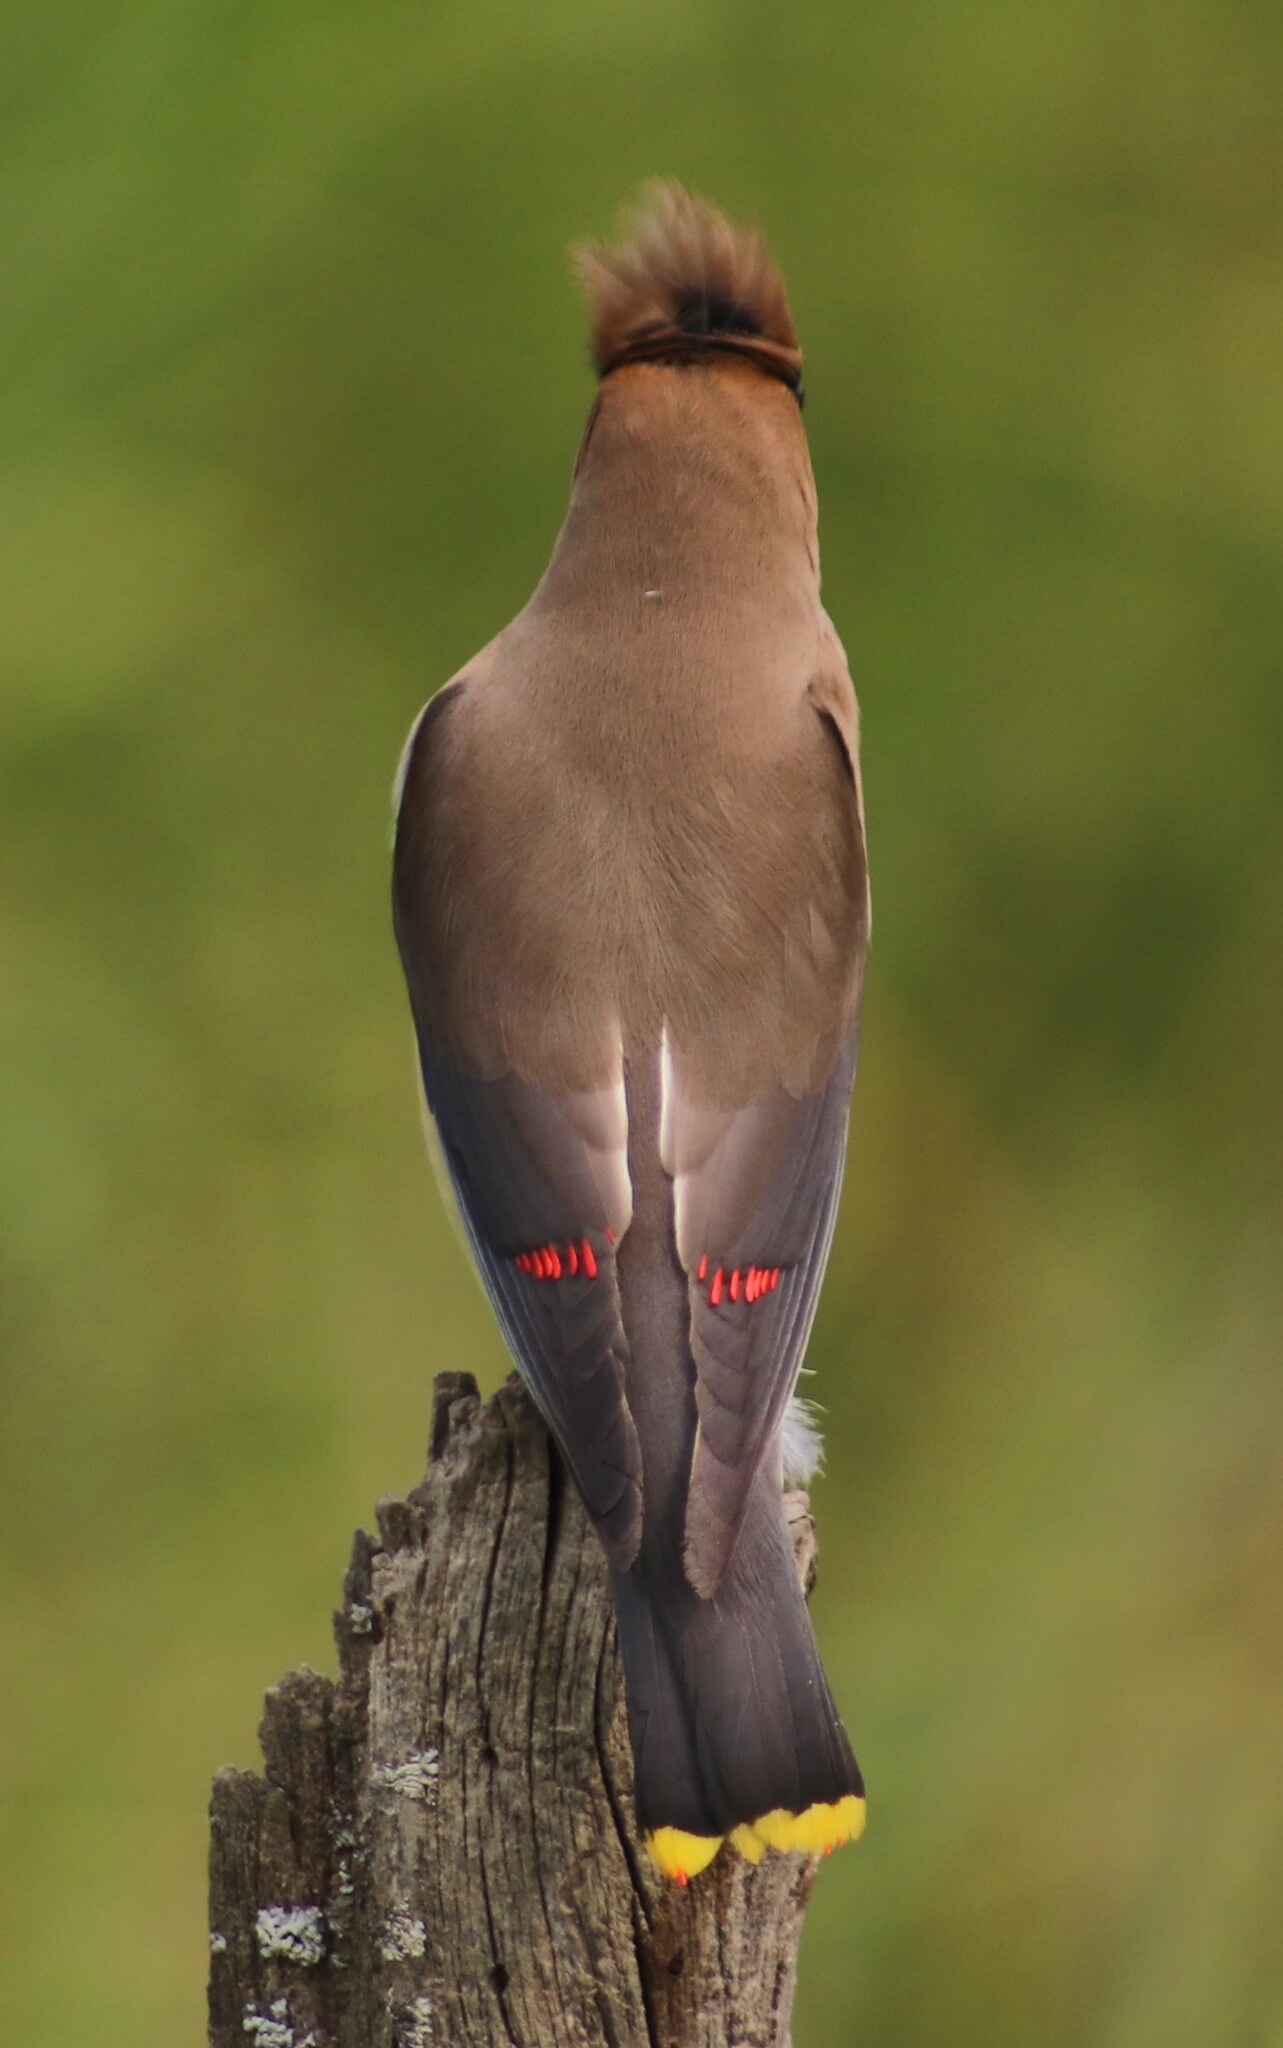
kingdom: Animalia
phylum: Chordata
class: Aves
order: Passeriformes
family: Bombycillidae
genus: Bombycilla
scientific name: Bombycilla cedrorum
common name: Cedar waxwing
